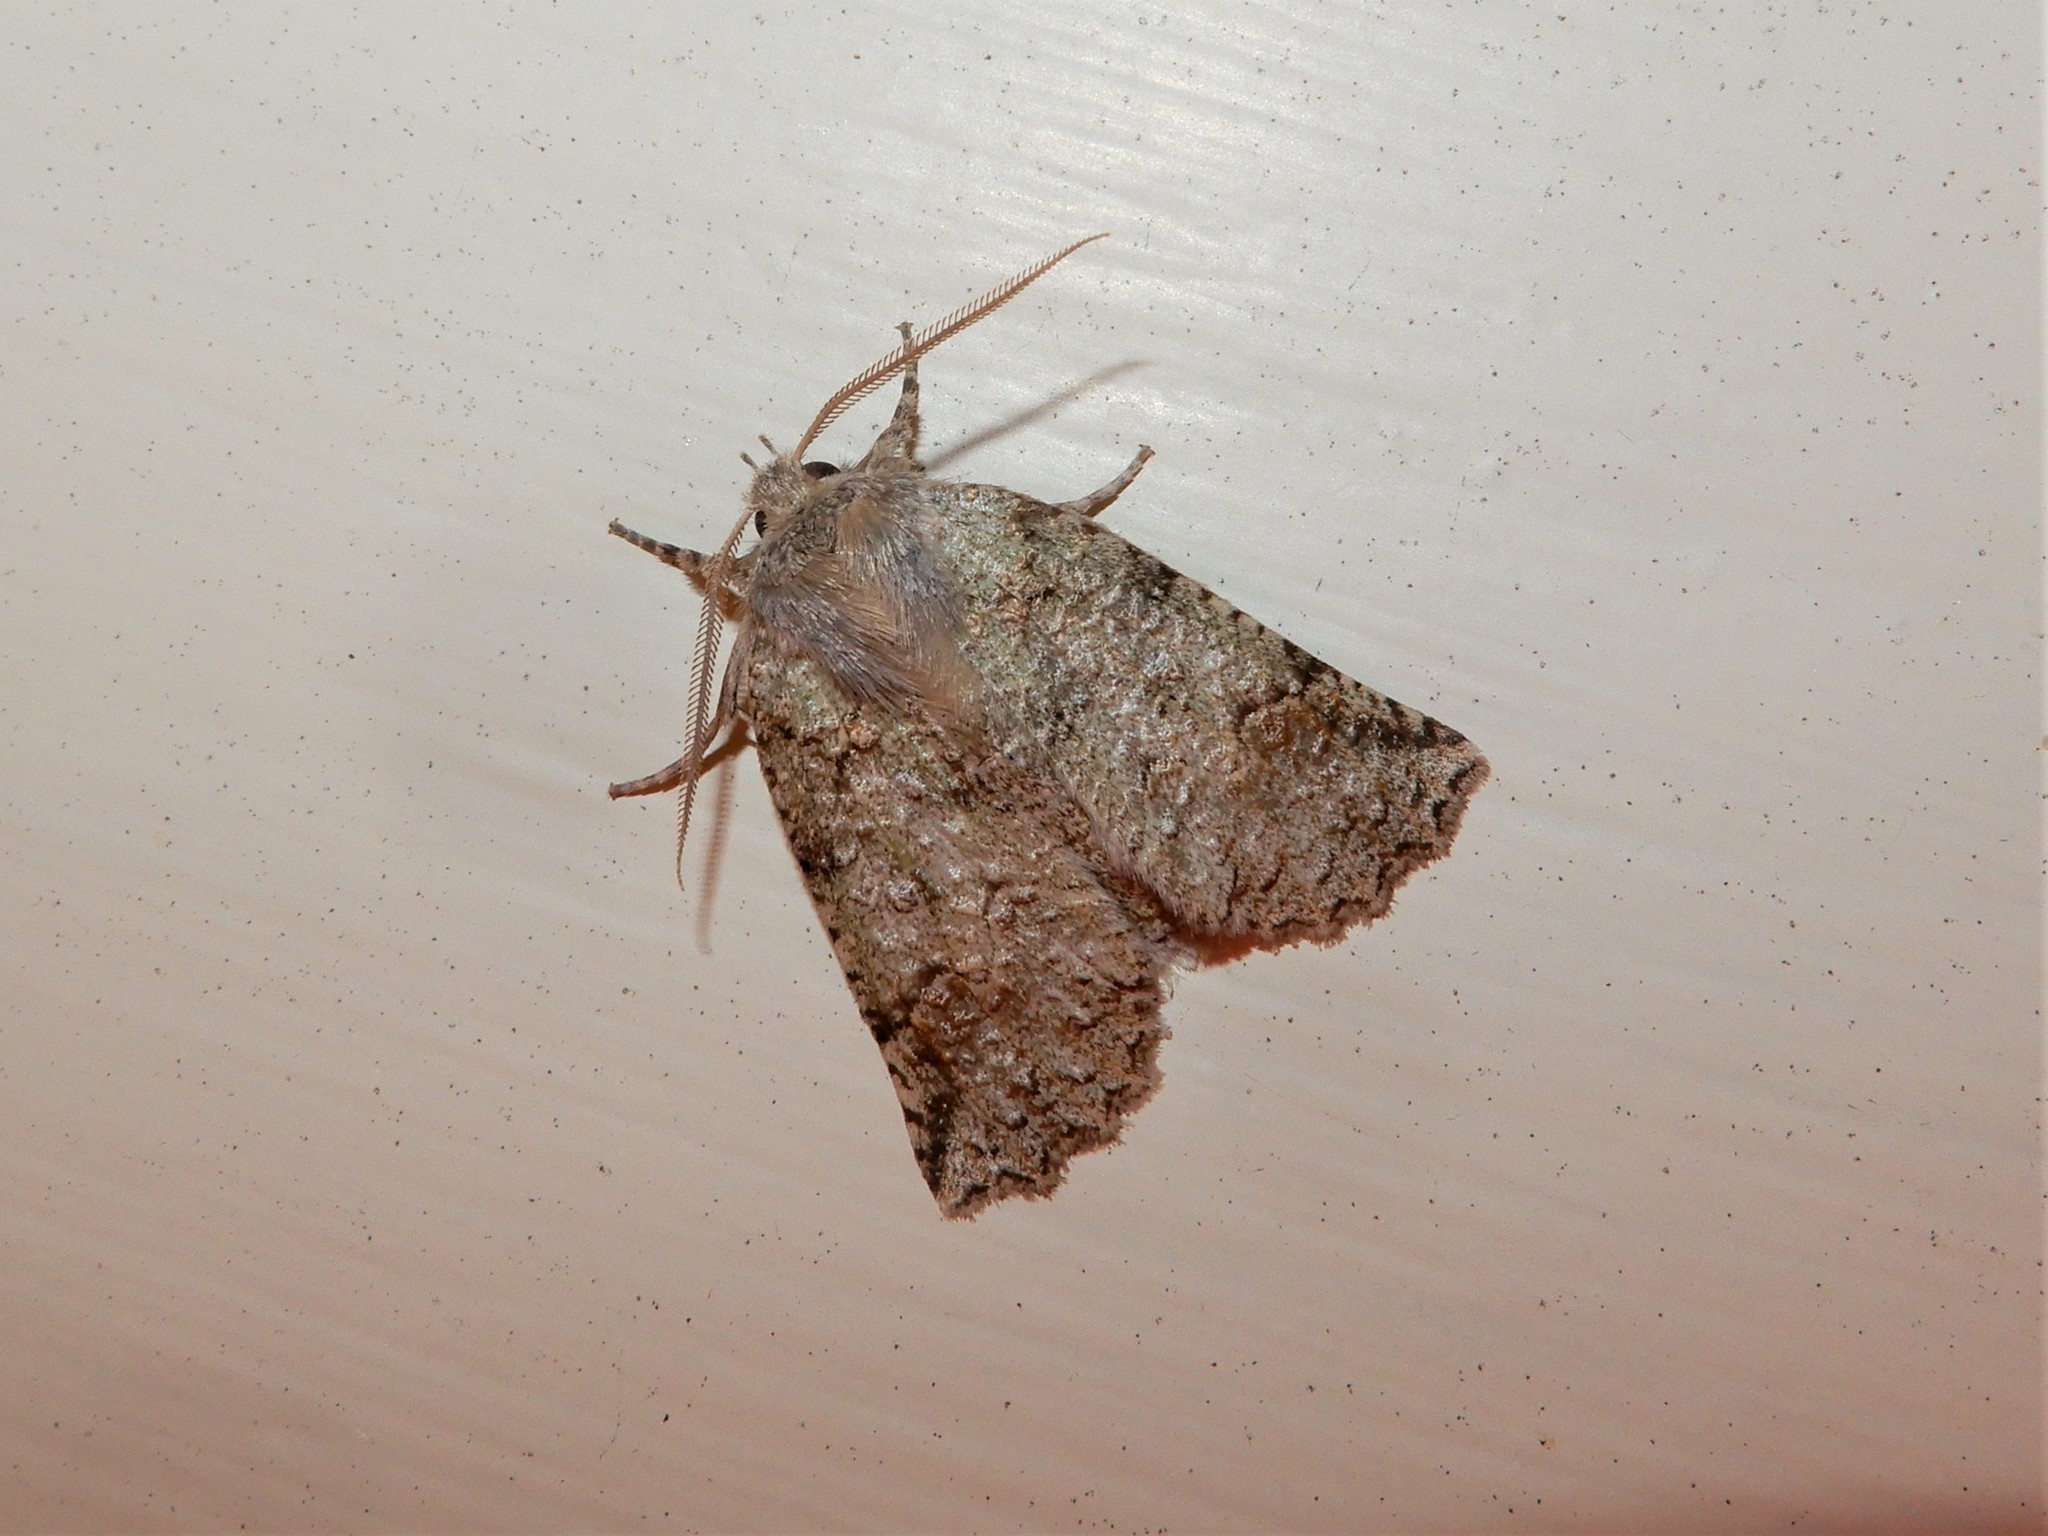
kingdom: Animalia
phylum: Arthropoda
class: Insecta
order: Lepidoptera
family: Geometridae
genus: Declana
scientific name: Declana floccosa
